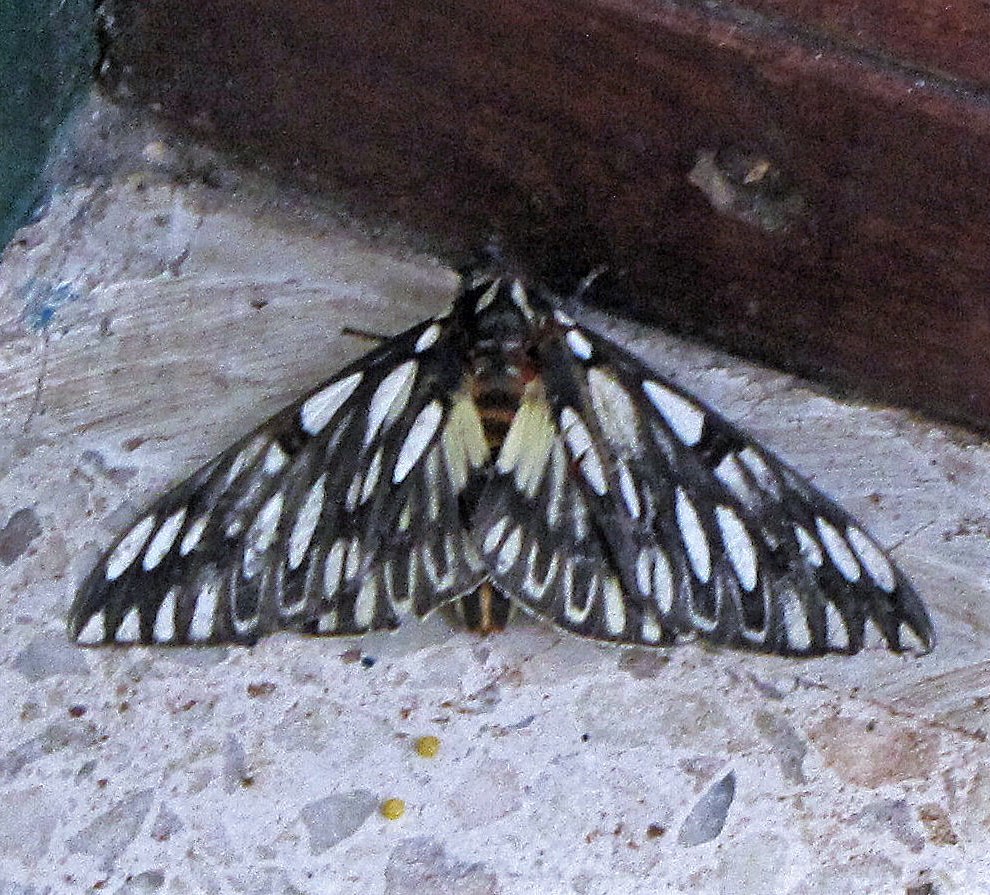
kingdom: Animalia
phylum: Arthropoda
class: Insecta
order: Lepidoptera
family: Saturniidae
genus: Citheronia
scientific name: Citheronia vogleri
